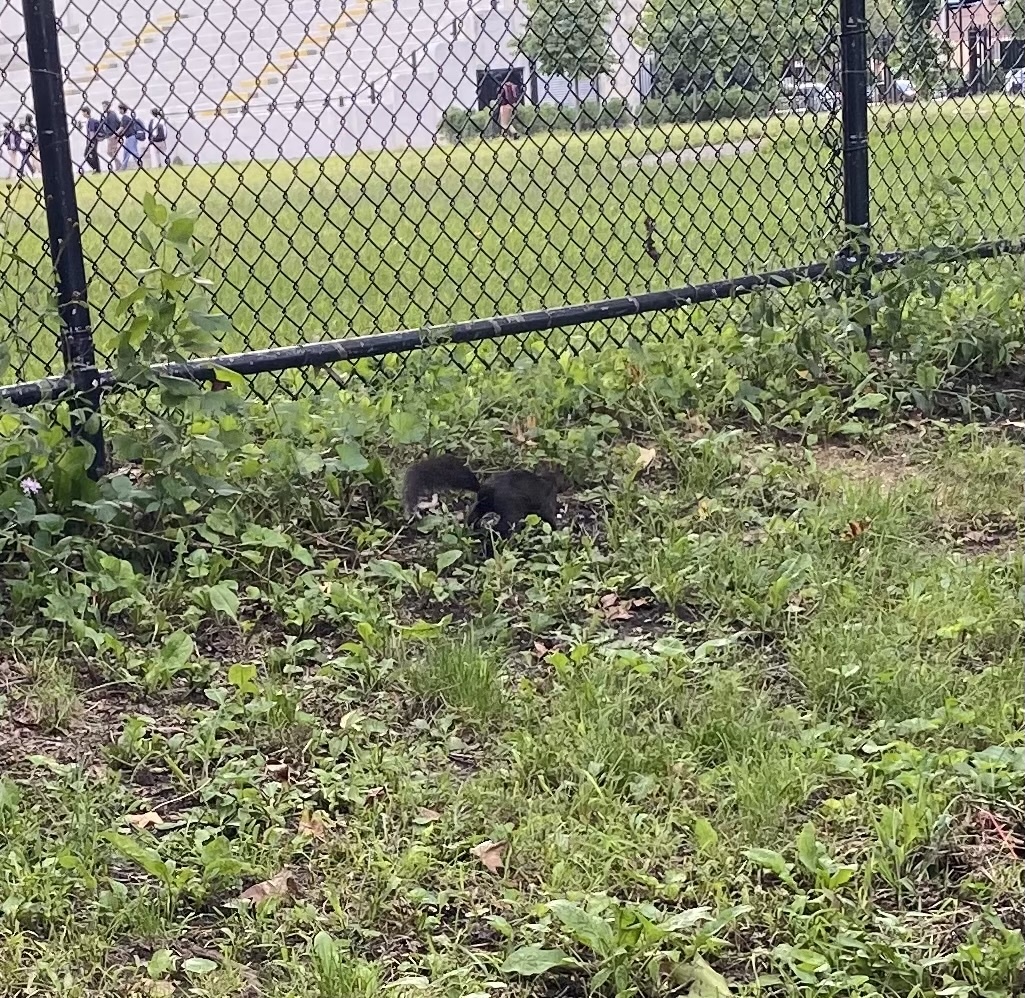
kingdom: Animalia
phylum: Chordata
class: Mammalia
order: Rodentia
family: Sciuridae
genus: Sciurus
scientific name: Sciurus carolinensis
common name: Eastern gray squirrel
